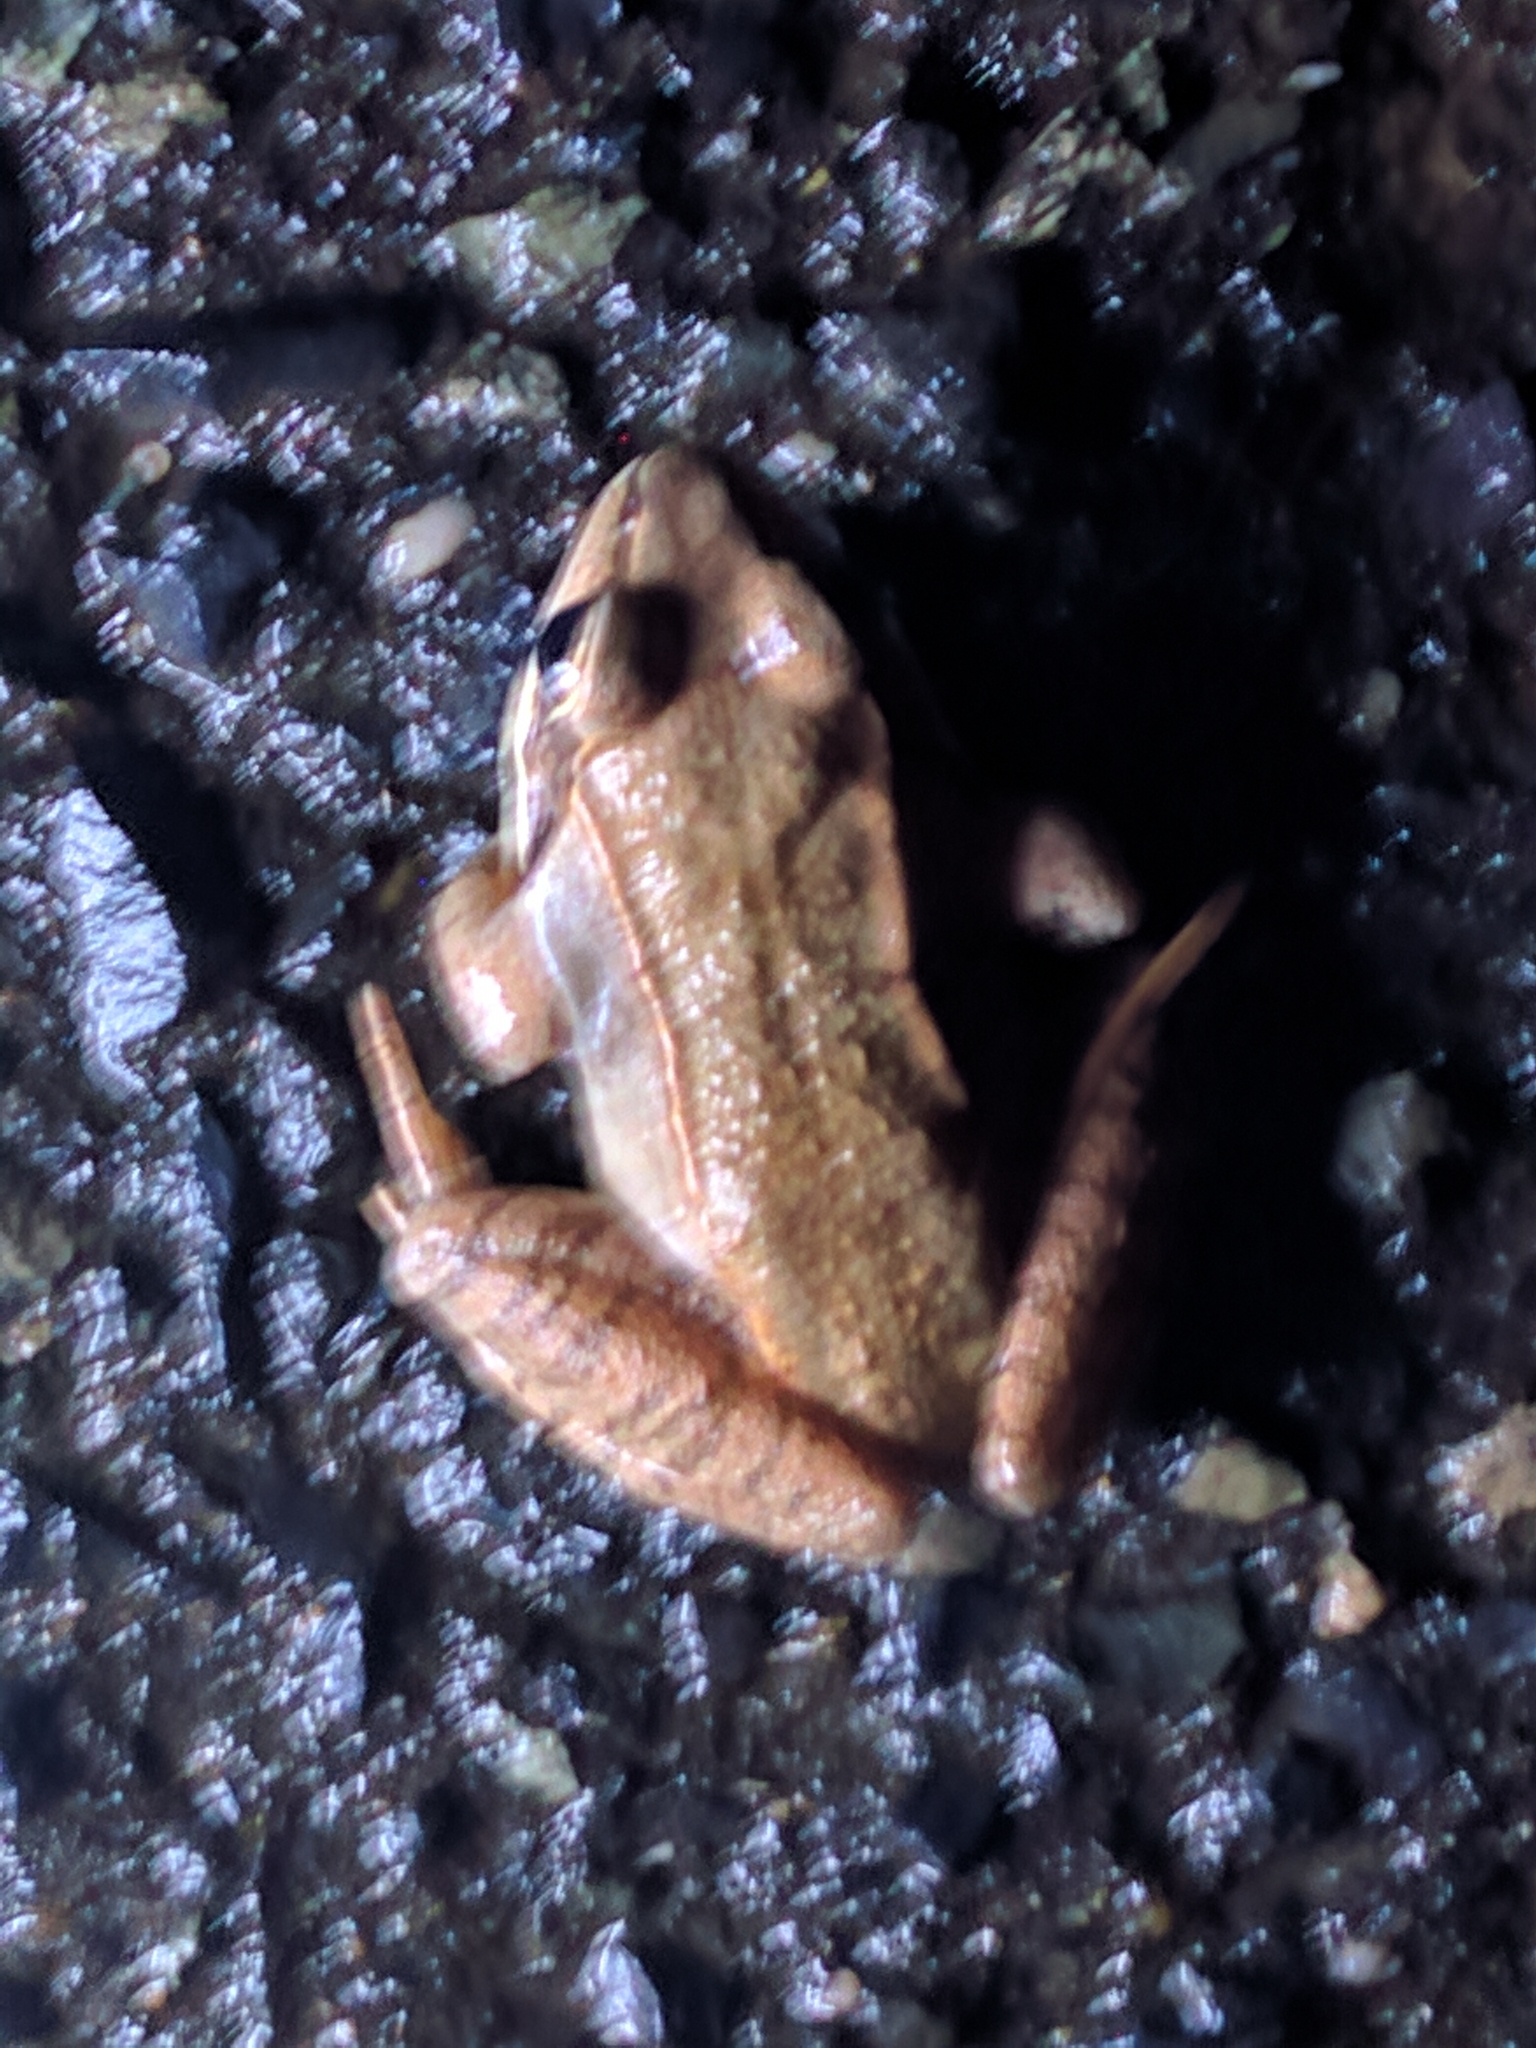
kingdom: Animalia
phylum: Chordata
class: Amphibia
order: Anura
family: Ranidae
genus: Lithobates
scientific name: Lithobates sylvaticus
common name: Wood frog
